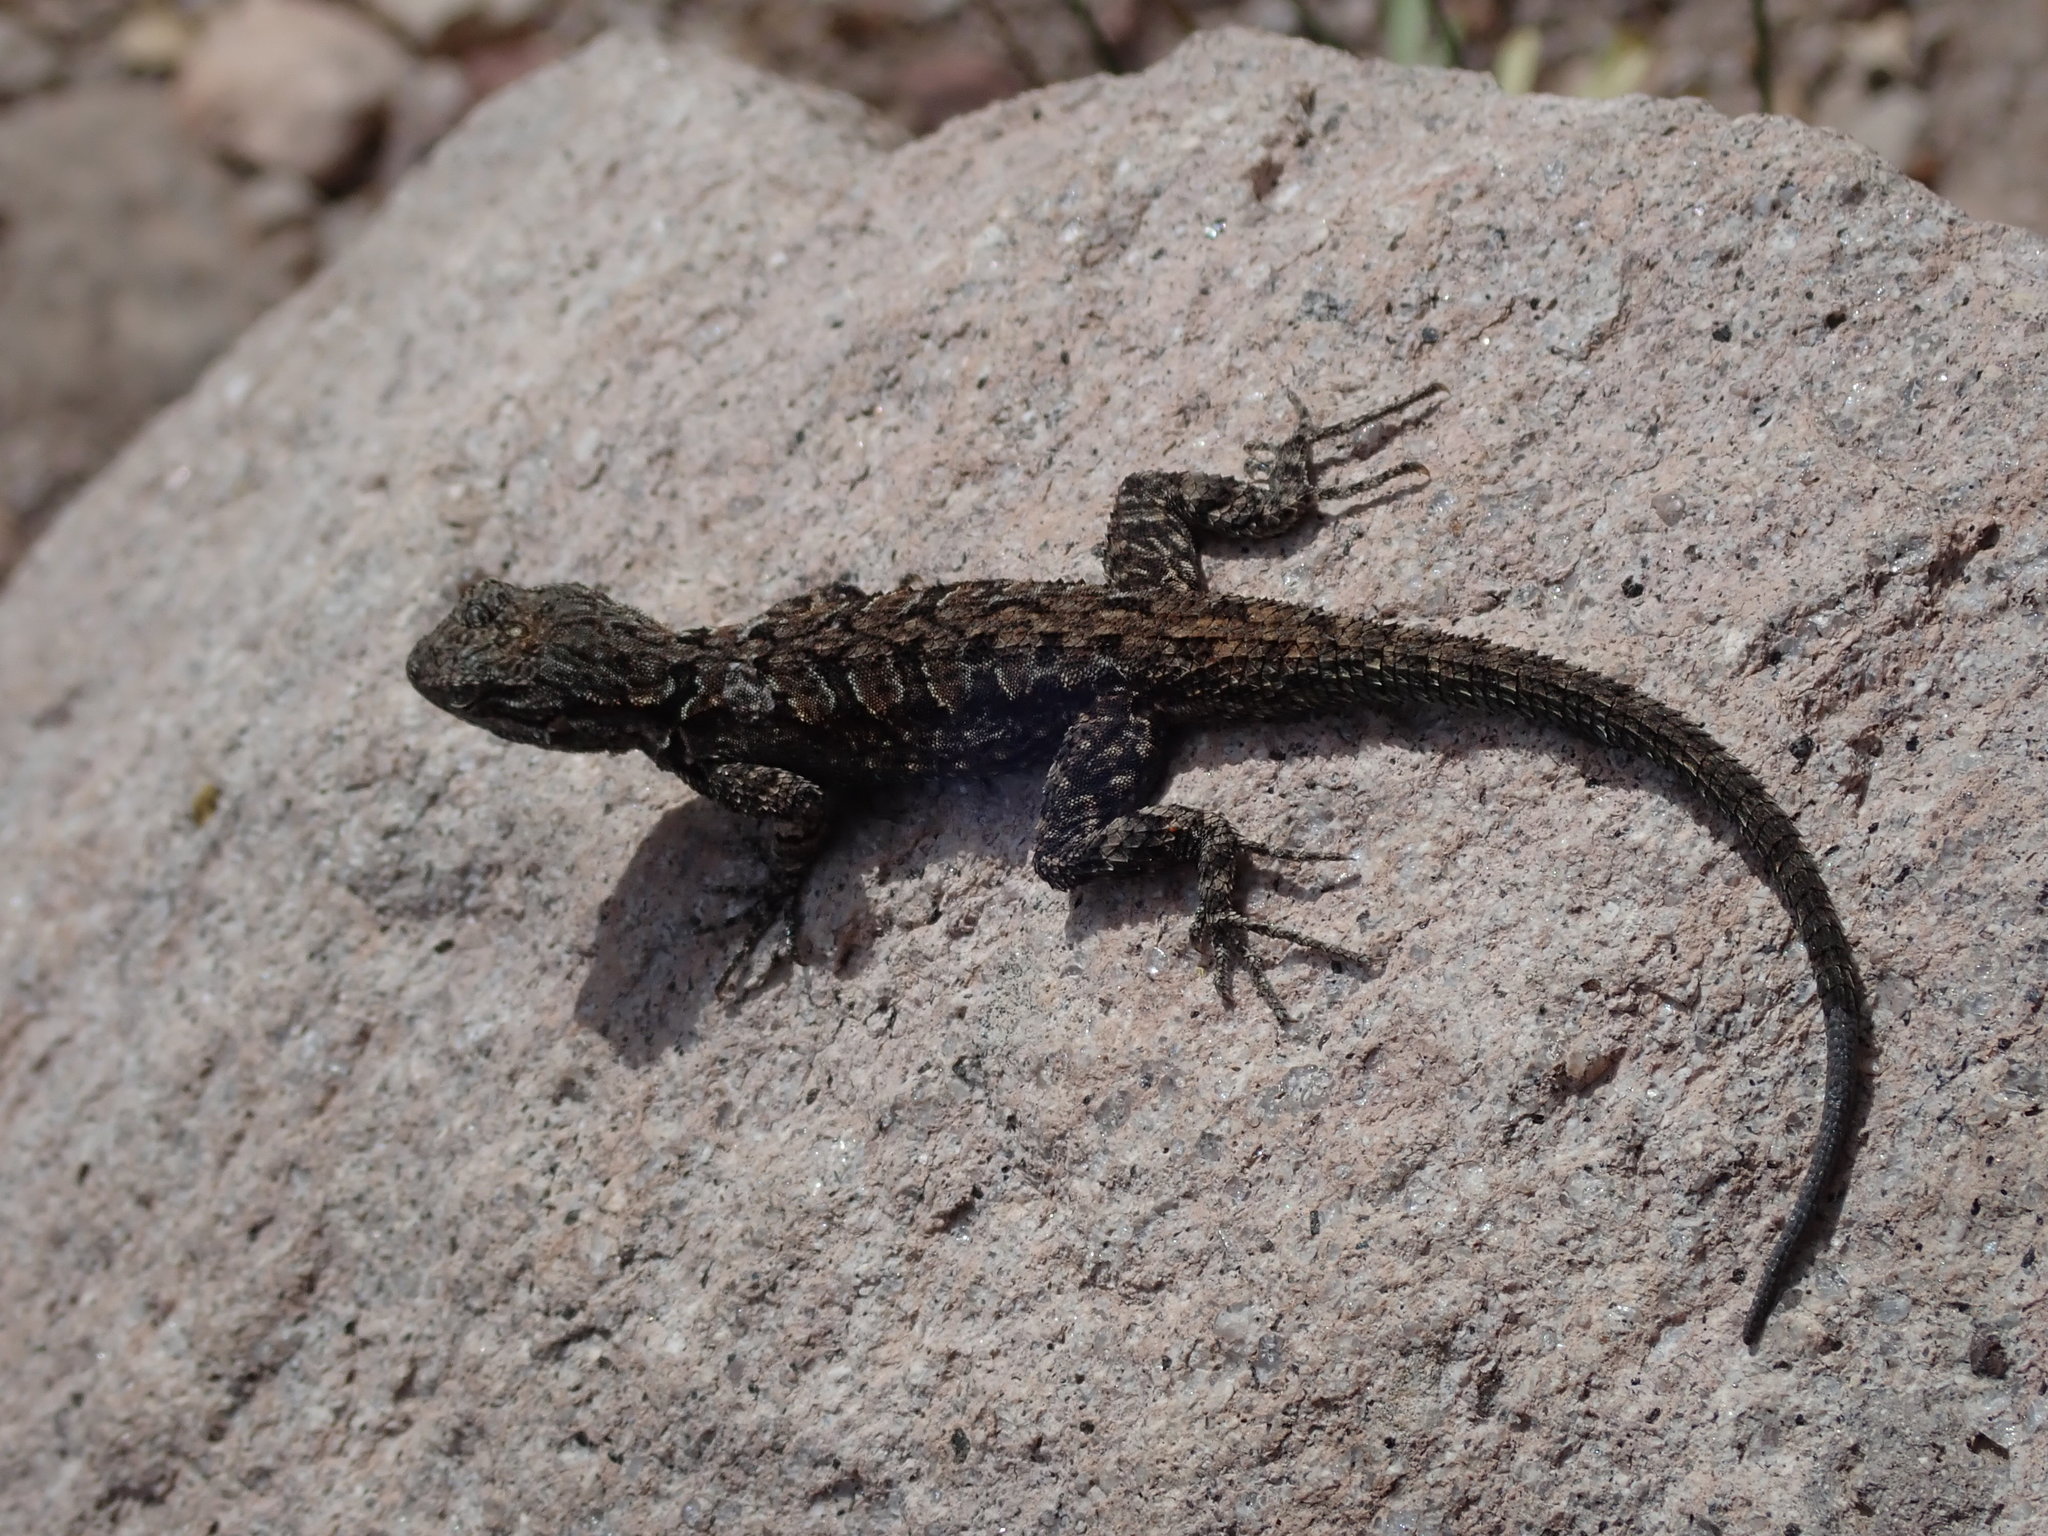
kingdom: Animalia
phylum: Chordata
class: Squamata
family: Phrynosomatidae
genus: Urosaurus
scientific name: Urosaurus ornatus
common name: Ornate tree lizard
